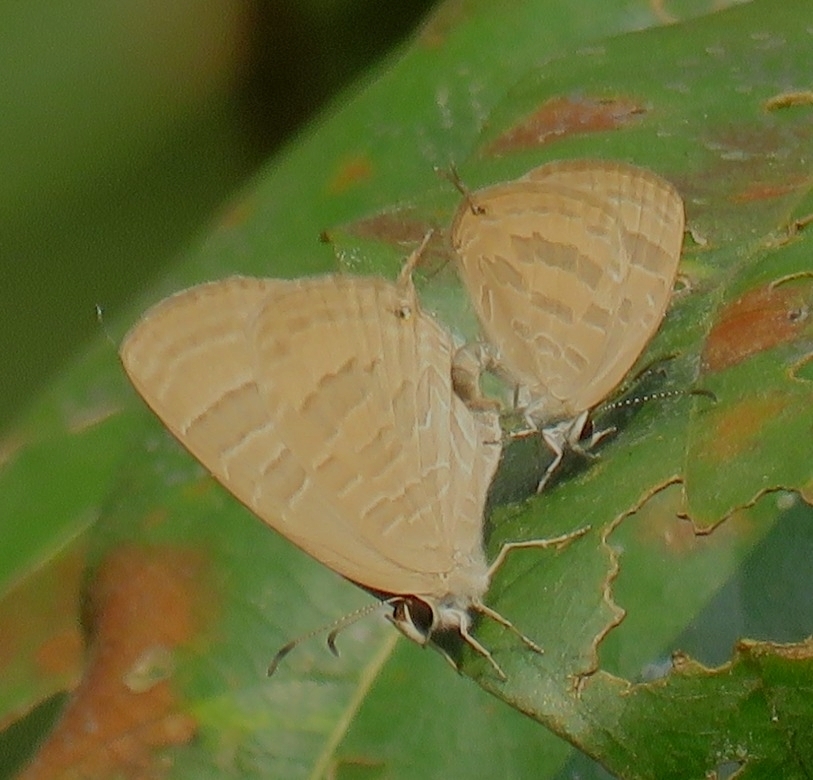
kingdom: Animalia
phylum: Arthropoda
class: Insecta
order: Lepidoptera
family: Lycaenidae
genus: Jamides
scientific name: Jamides celeno
